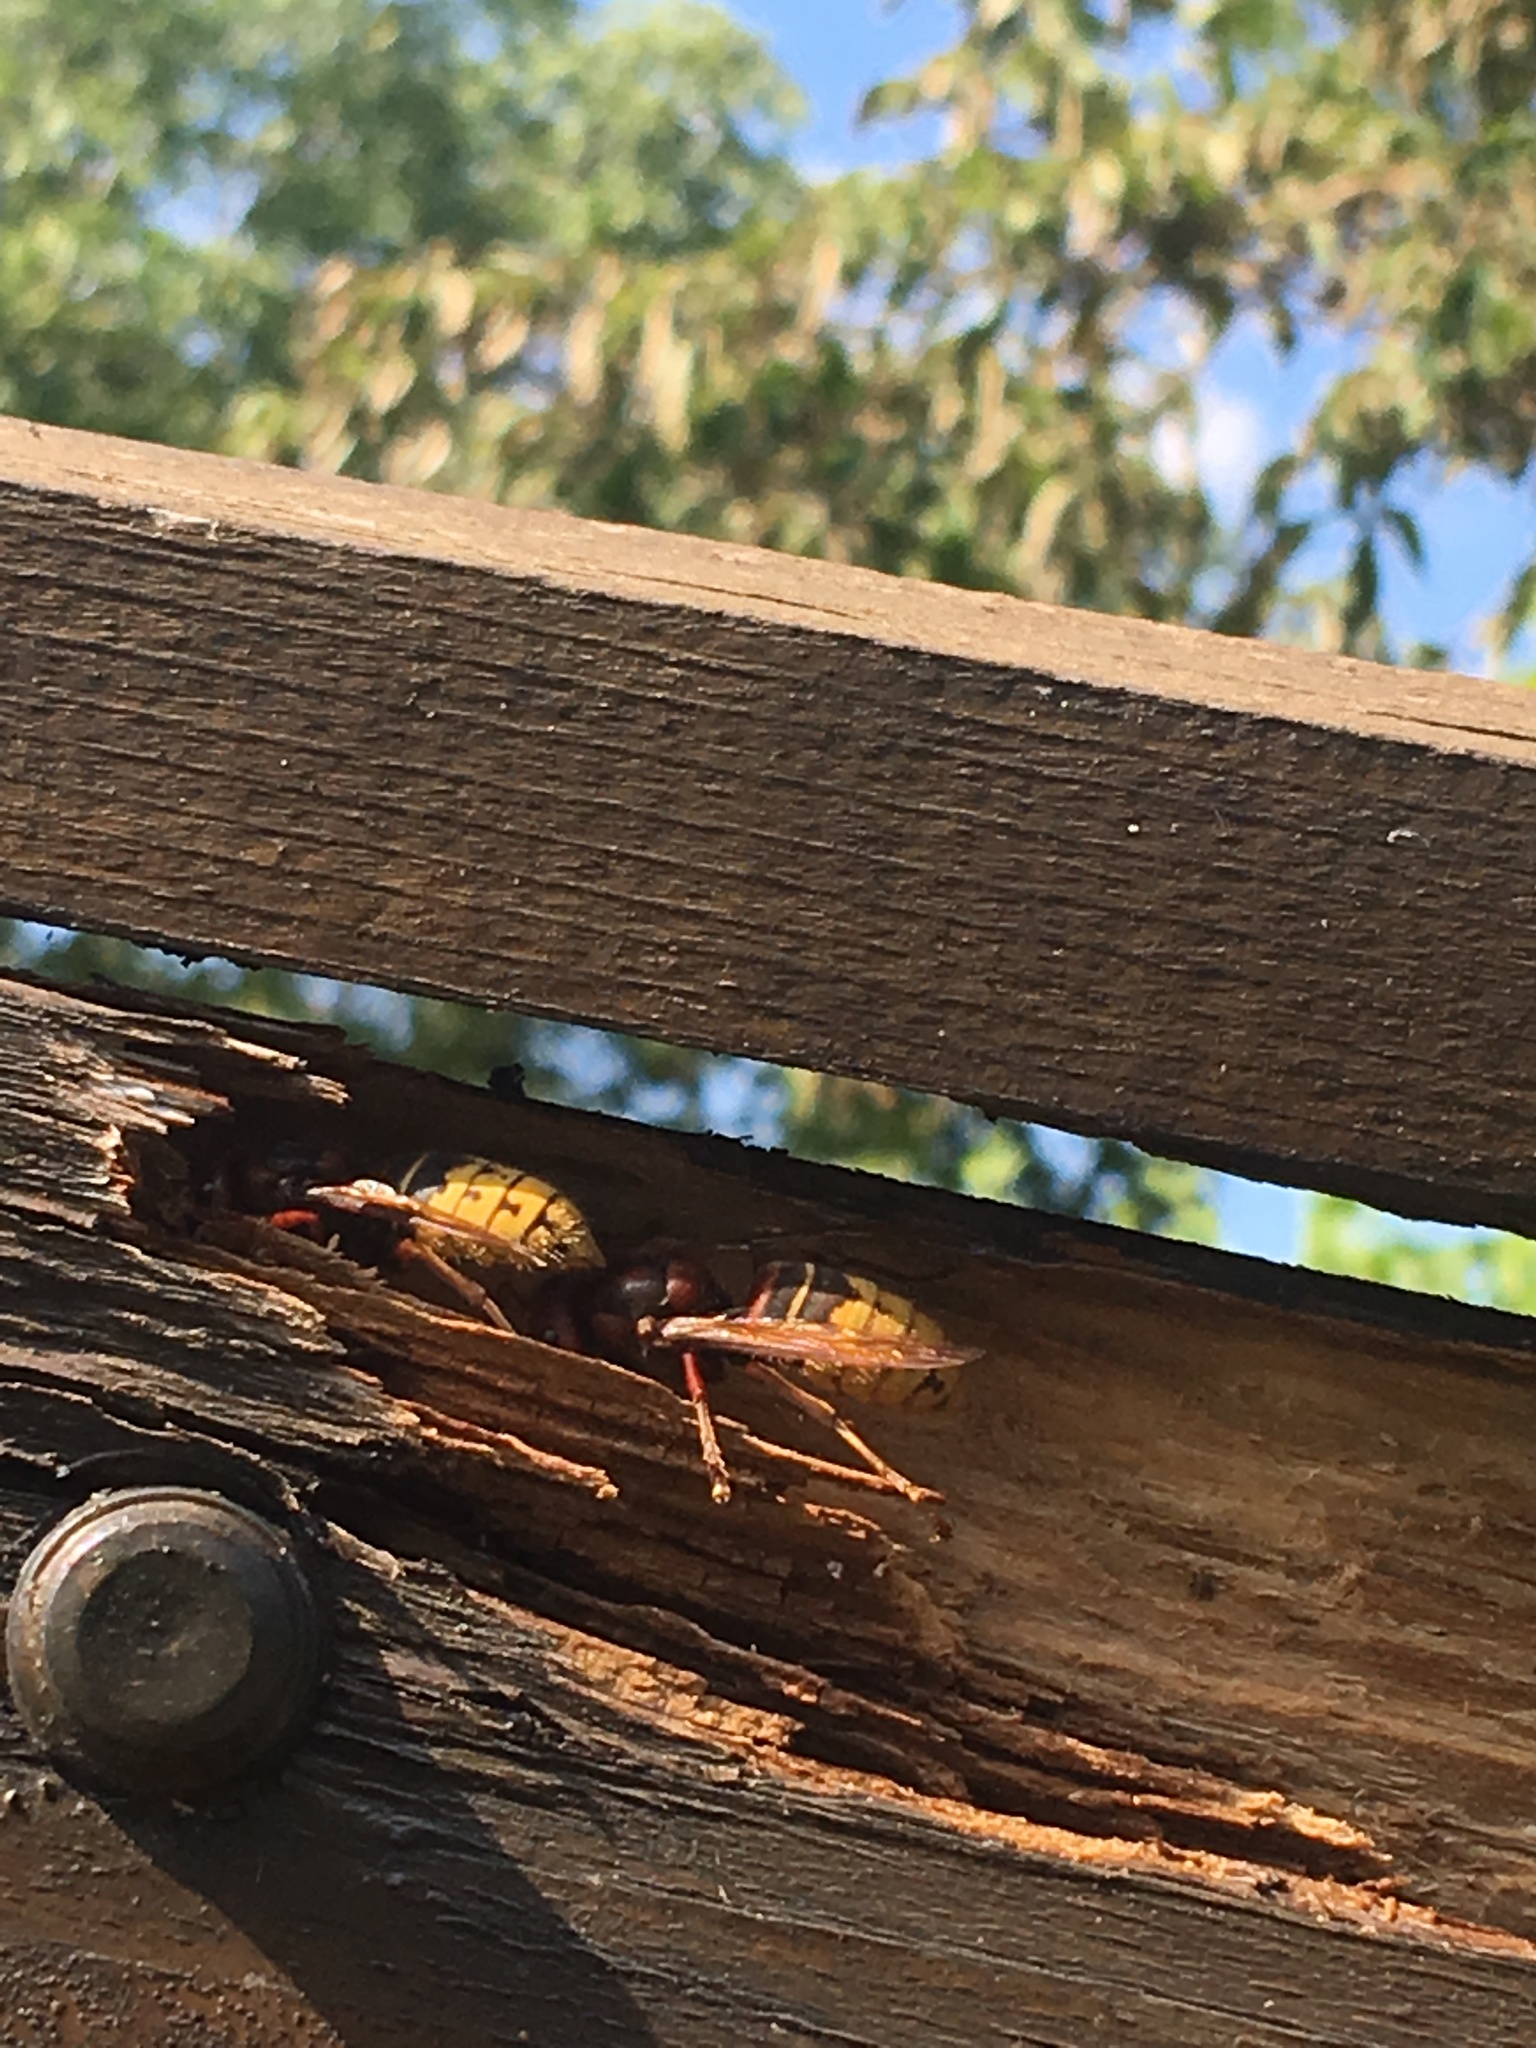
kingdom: Animalia
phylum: Arthropoda
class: Insecta
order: Hymenoptera
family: Vespidae
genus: Vespa
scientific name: Vespa crabro
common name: Hornet
